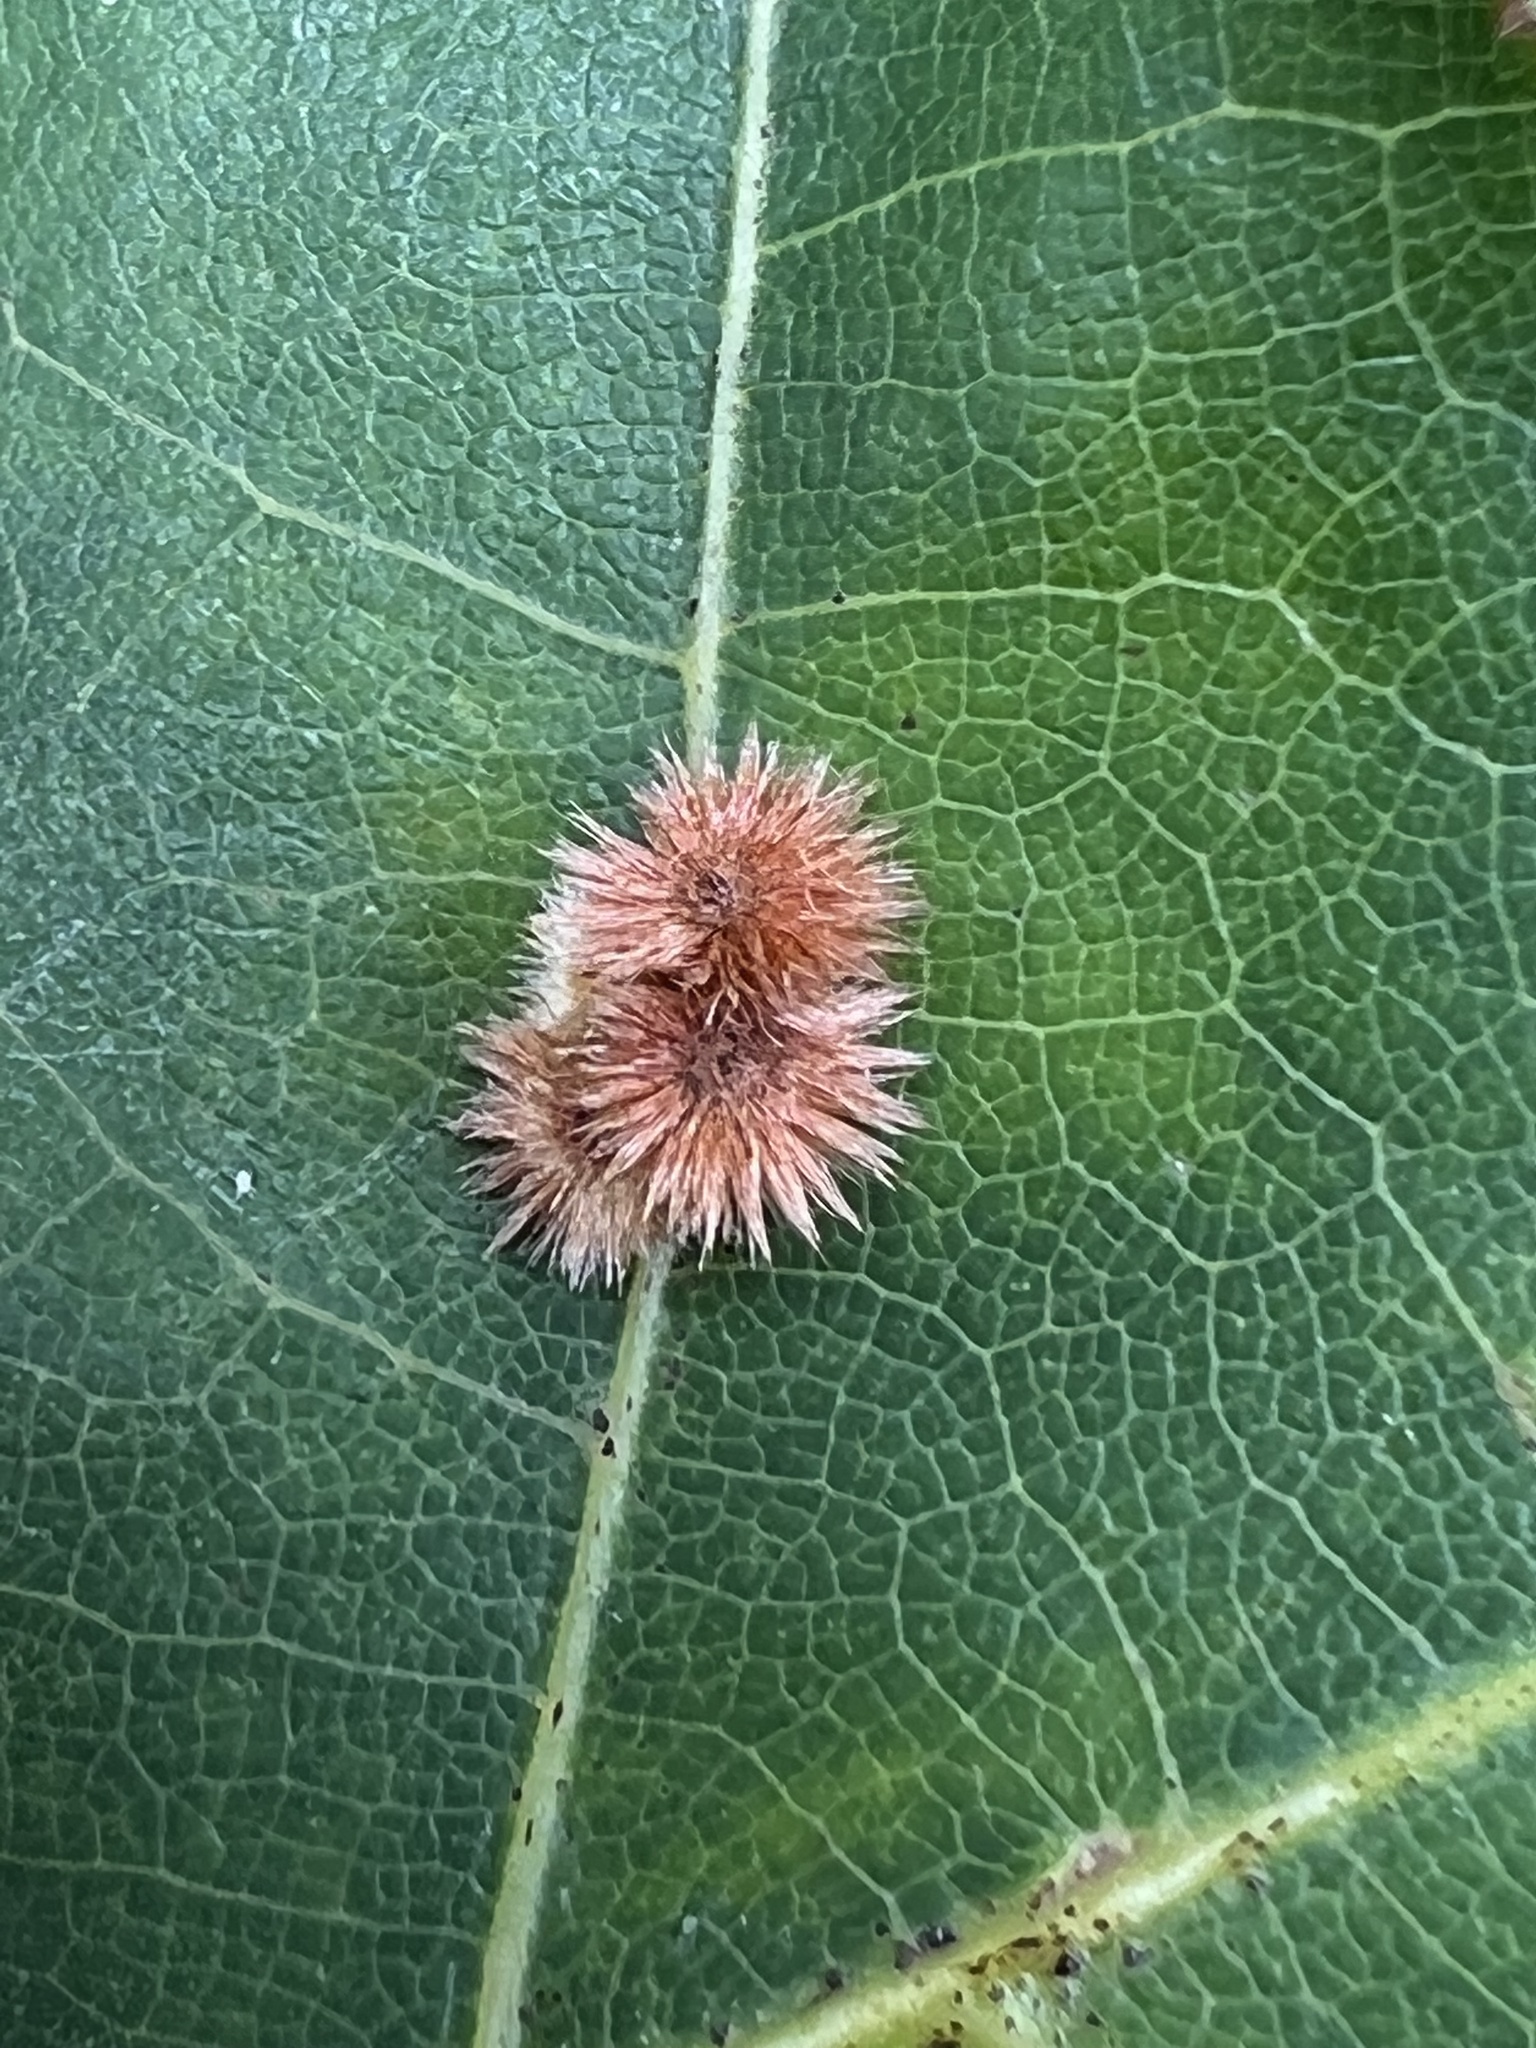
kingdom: Animalia
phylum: Arthropoda
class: Insecta
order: Hymenoptera
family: Cynipidae
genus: Callirhytis
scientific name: Callirhytis
